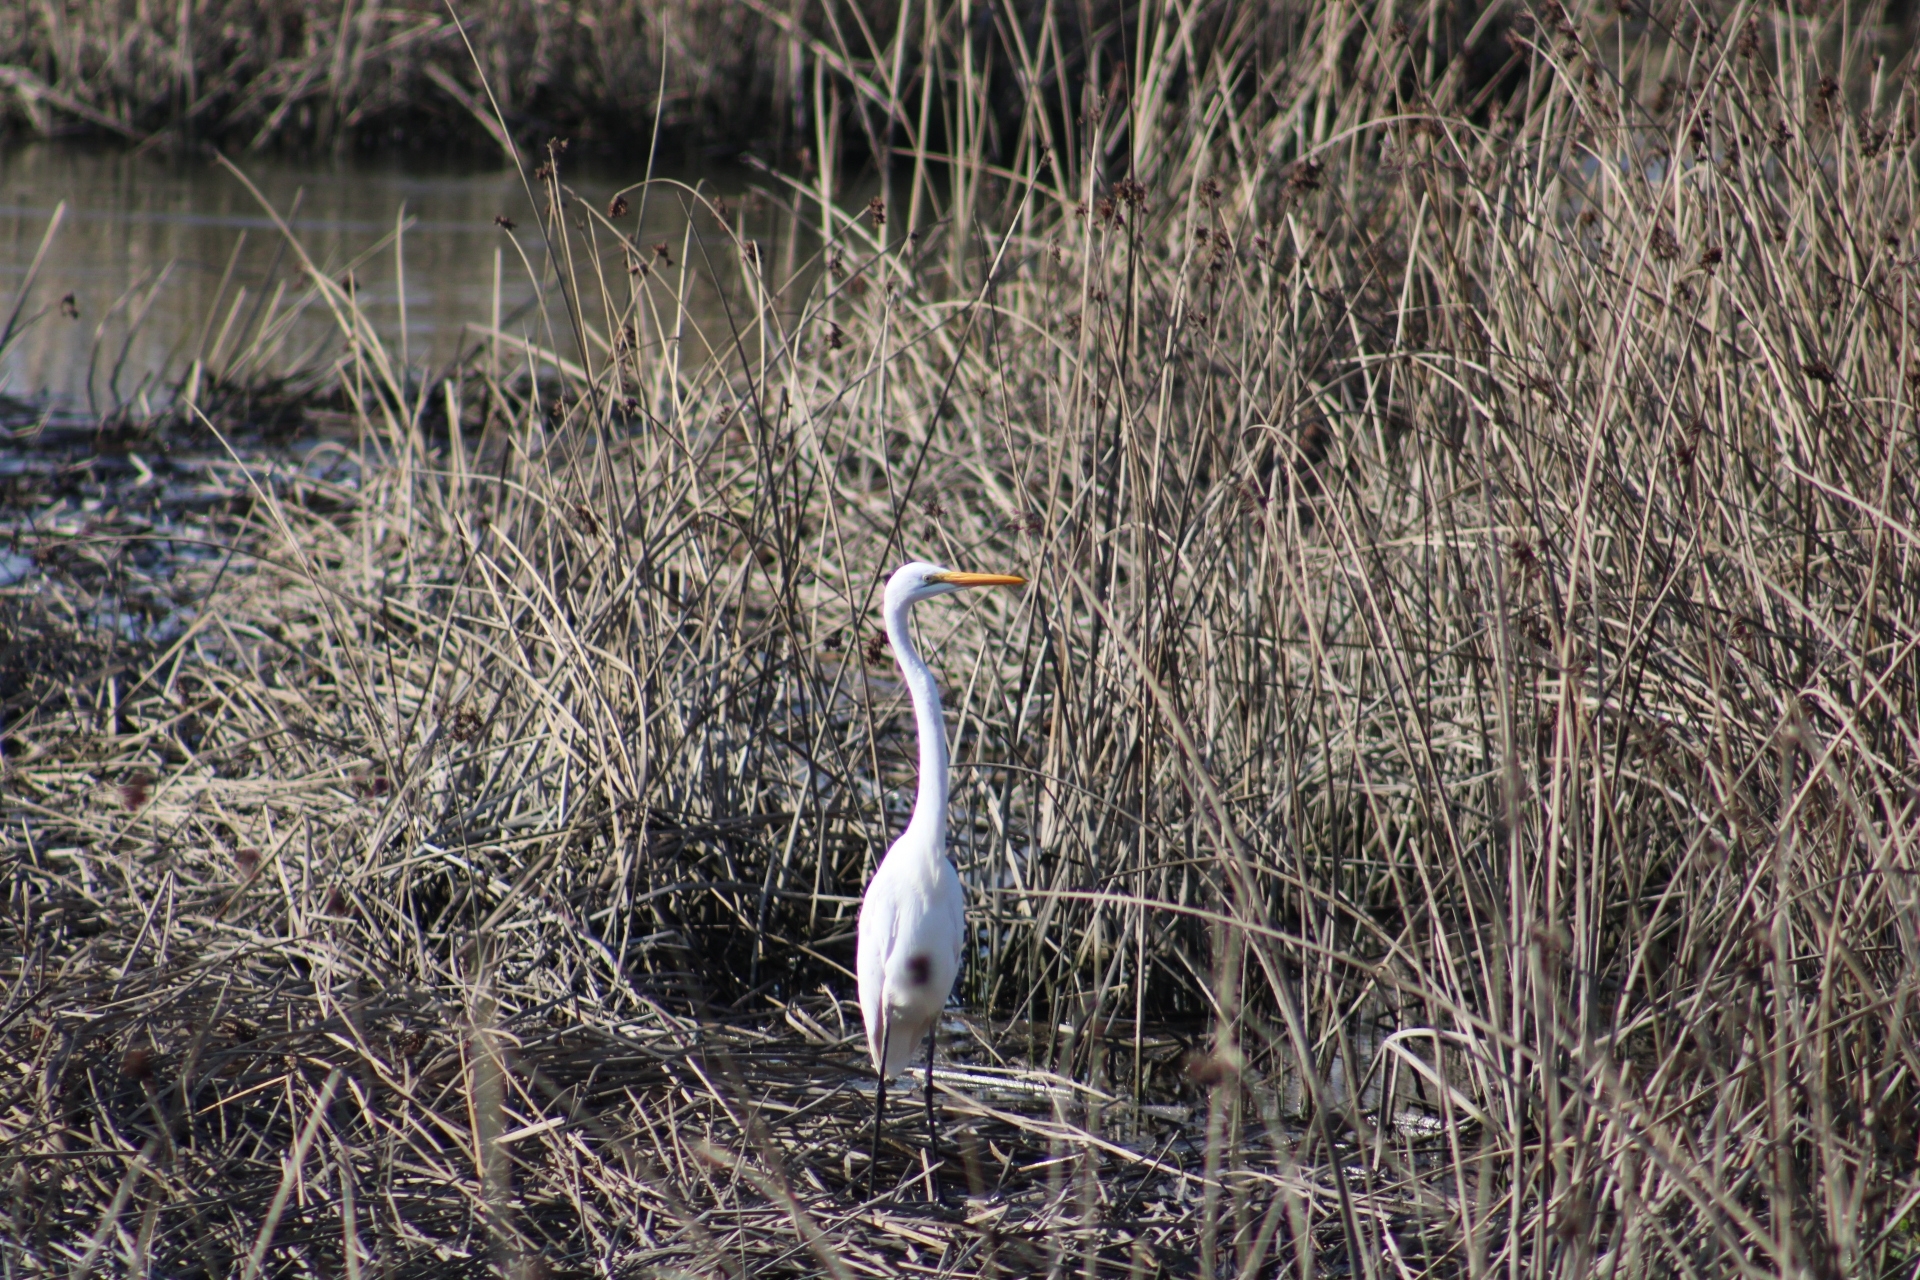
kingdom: Animalia
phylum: Chordata
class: Aves
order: Pelecaniformes
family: Ardeidae
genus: Ardea
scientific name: Ardea alba
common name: Great egret
